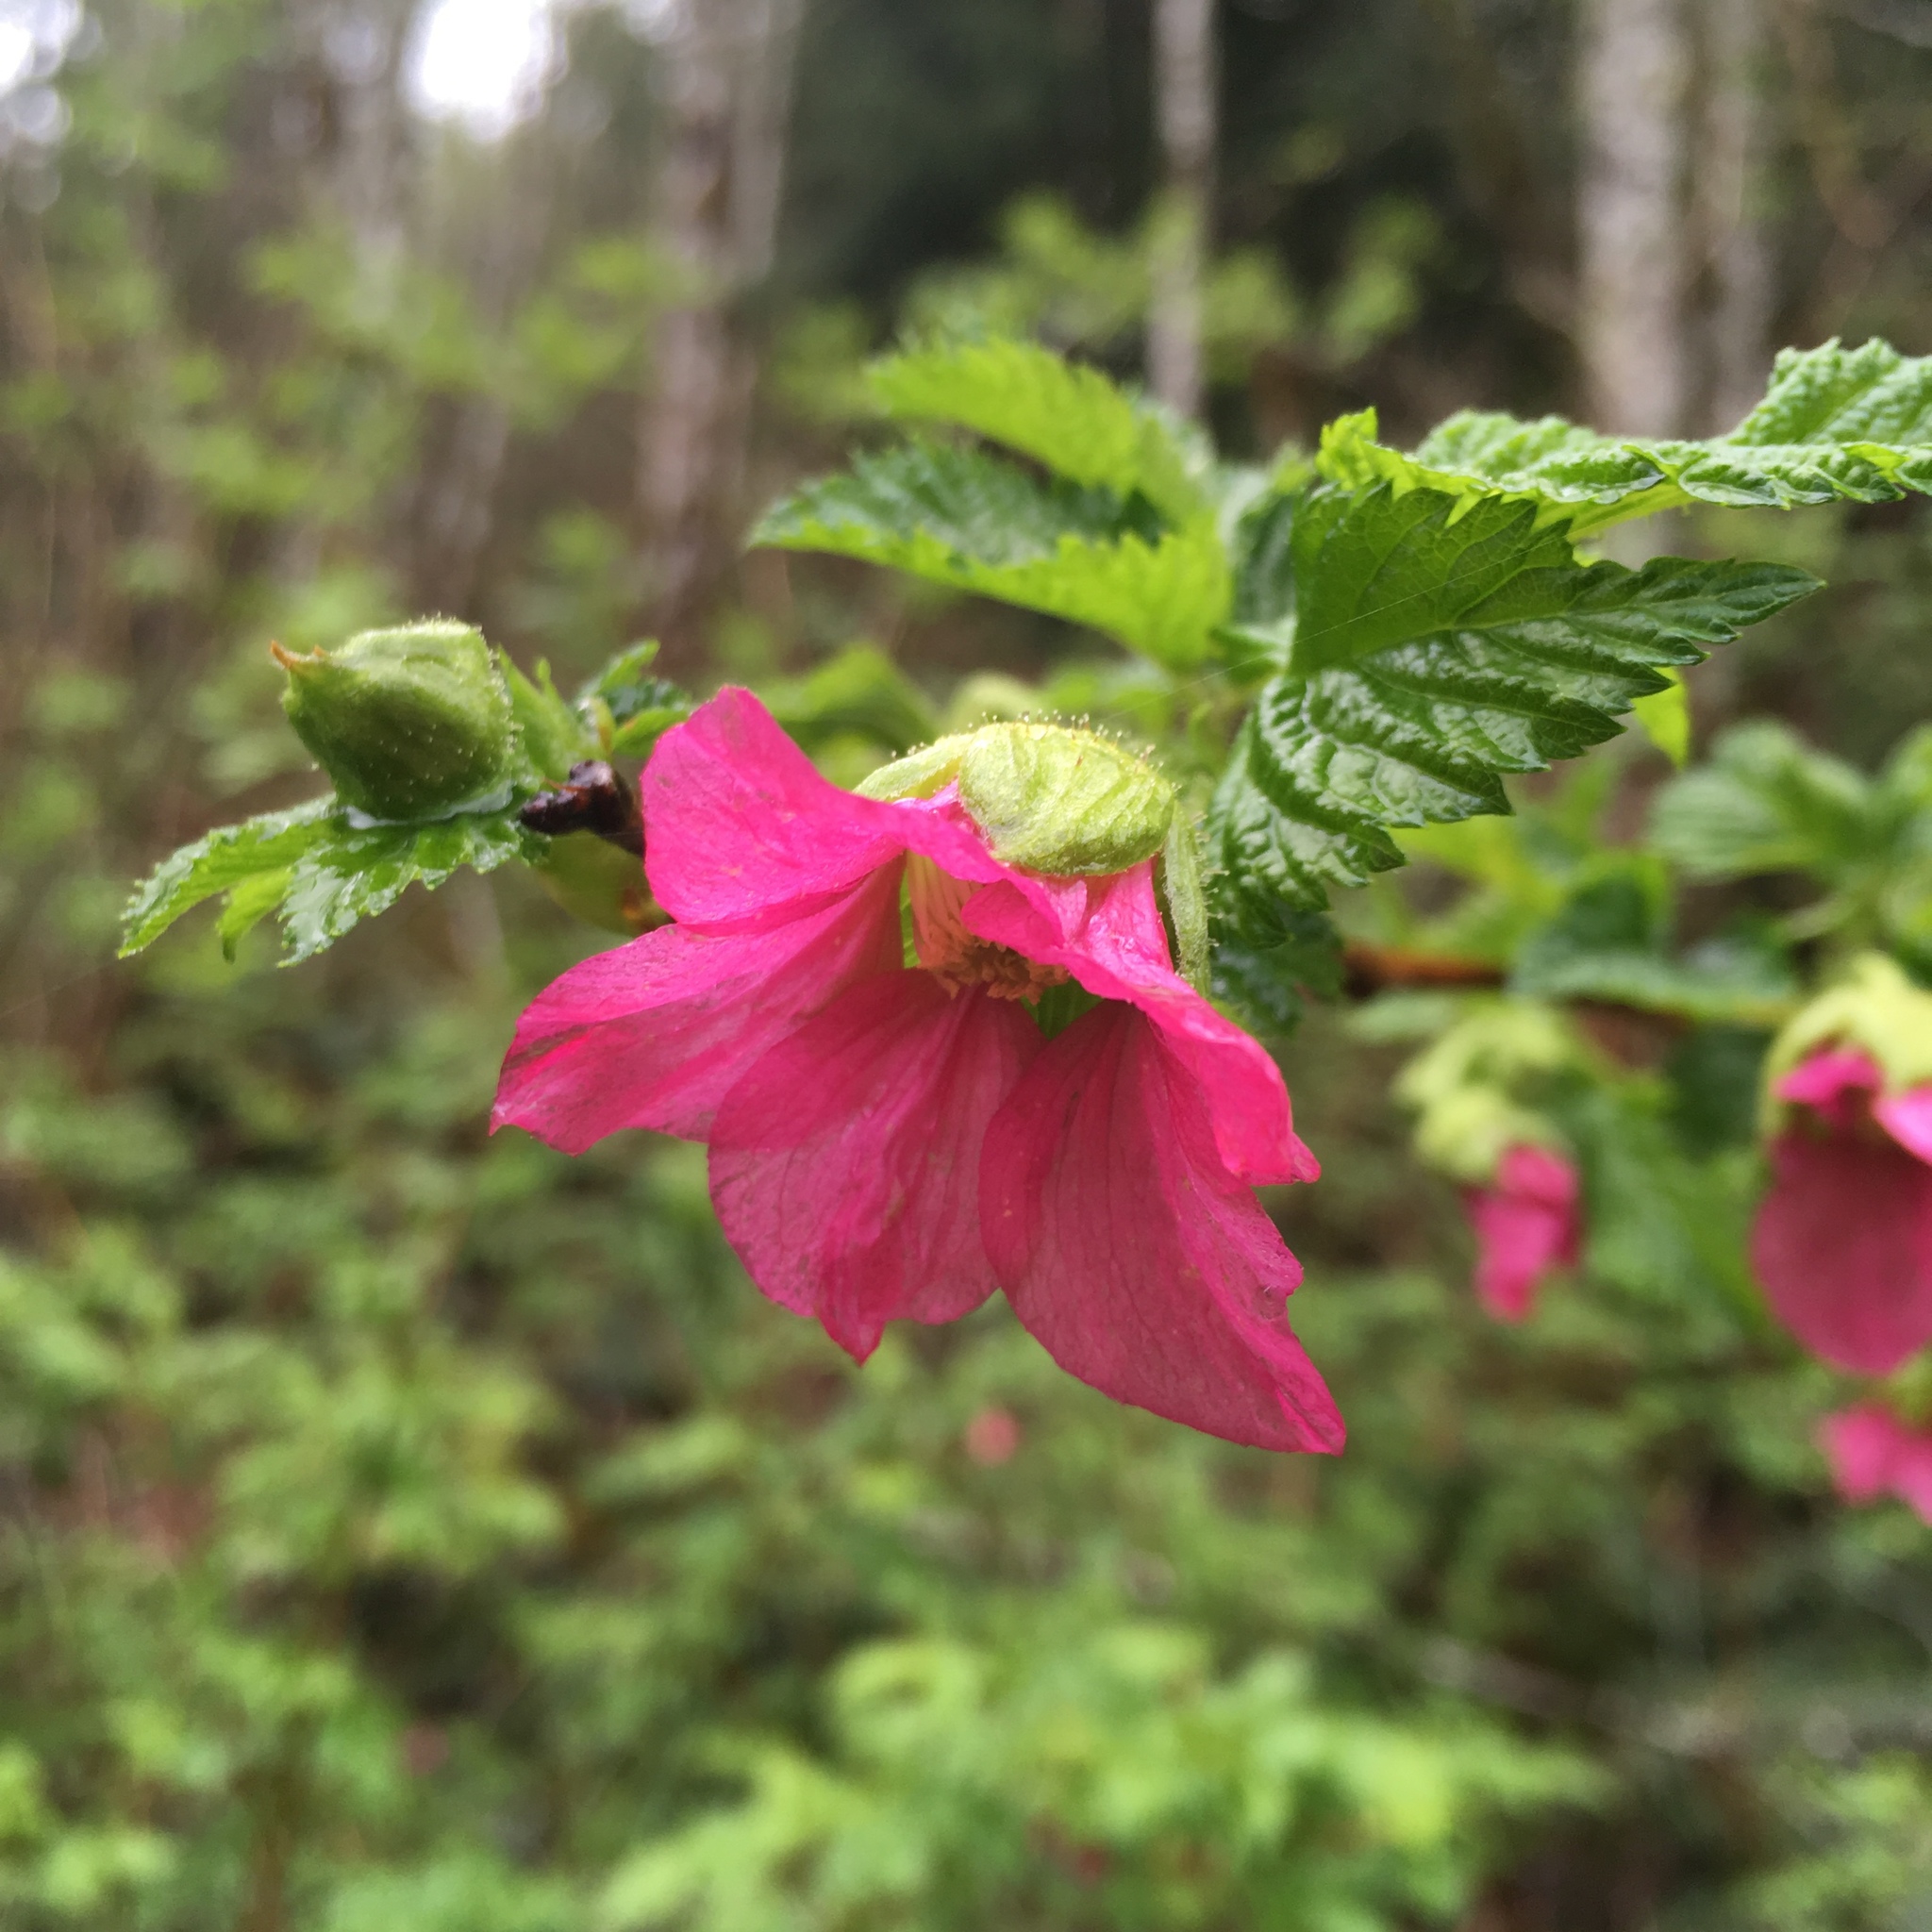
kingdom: Plantae
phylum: Tracheophyta
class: Magnoliopsida
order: Rosales
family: Rosaceae
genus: Rubus
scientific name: Rubus spectabilis
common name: Salmonberry
